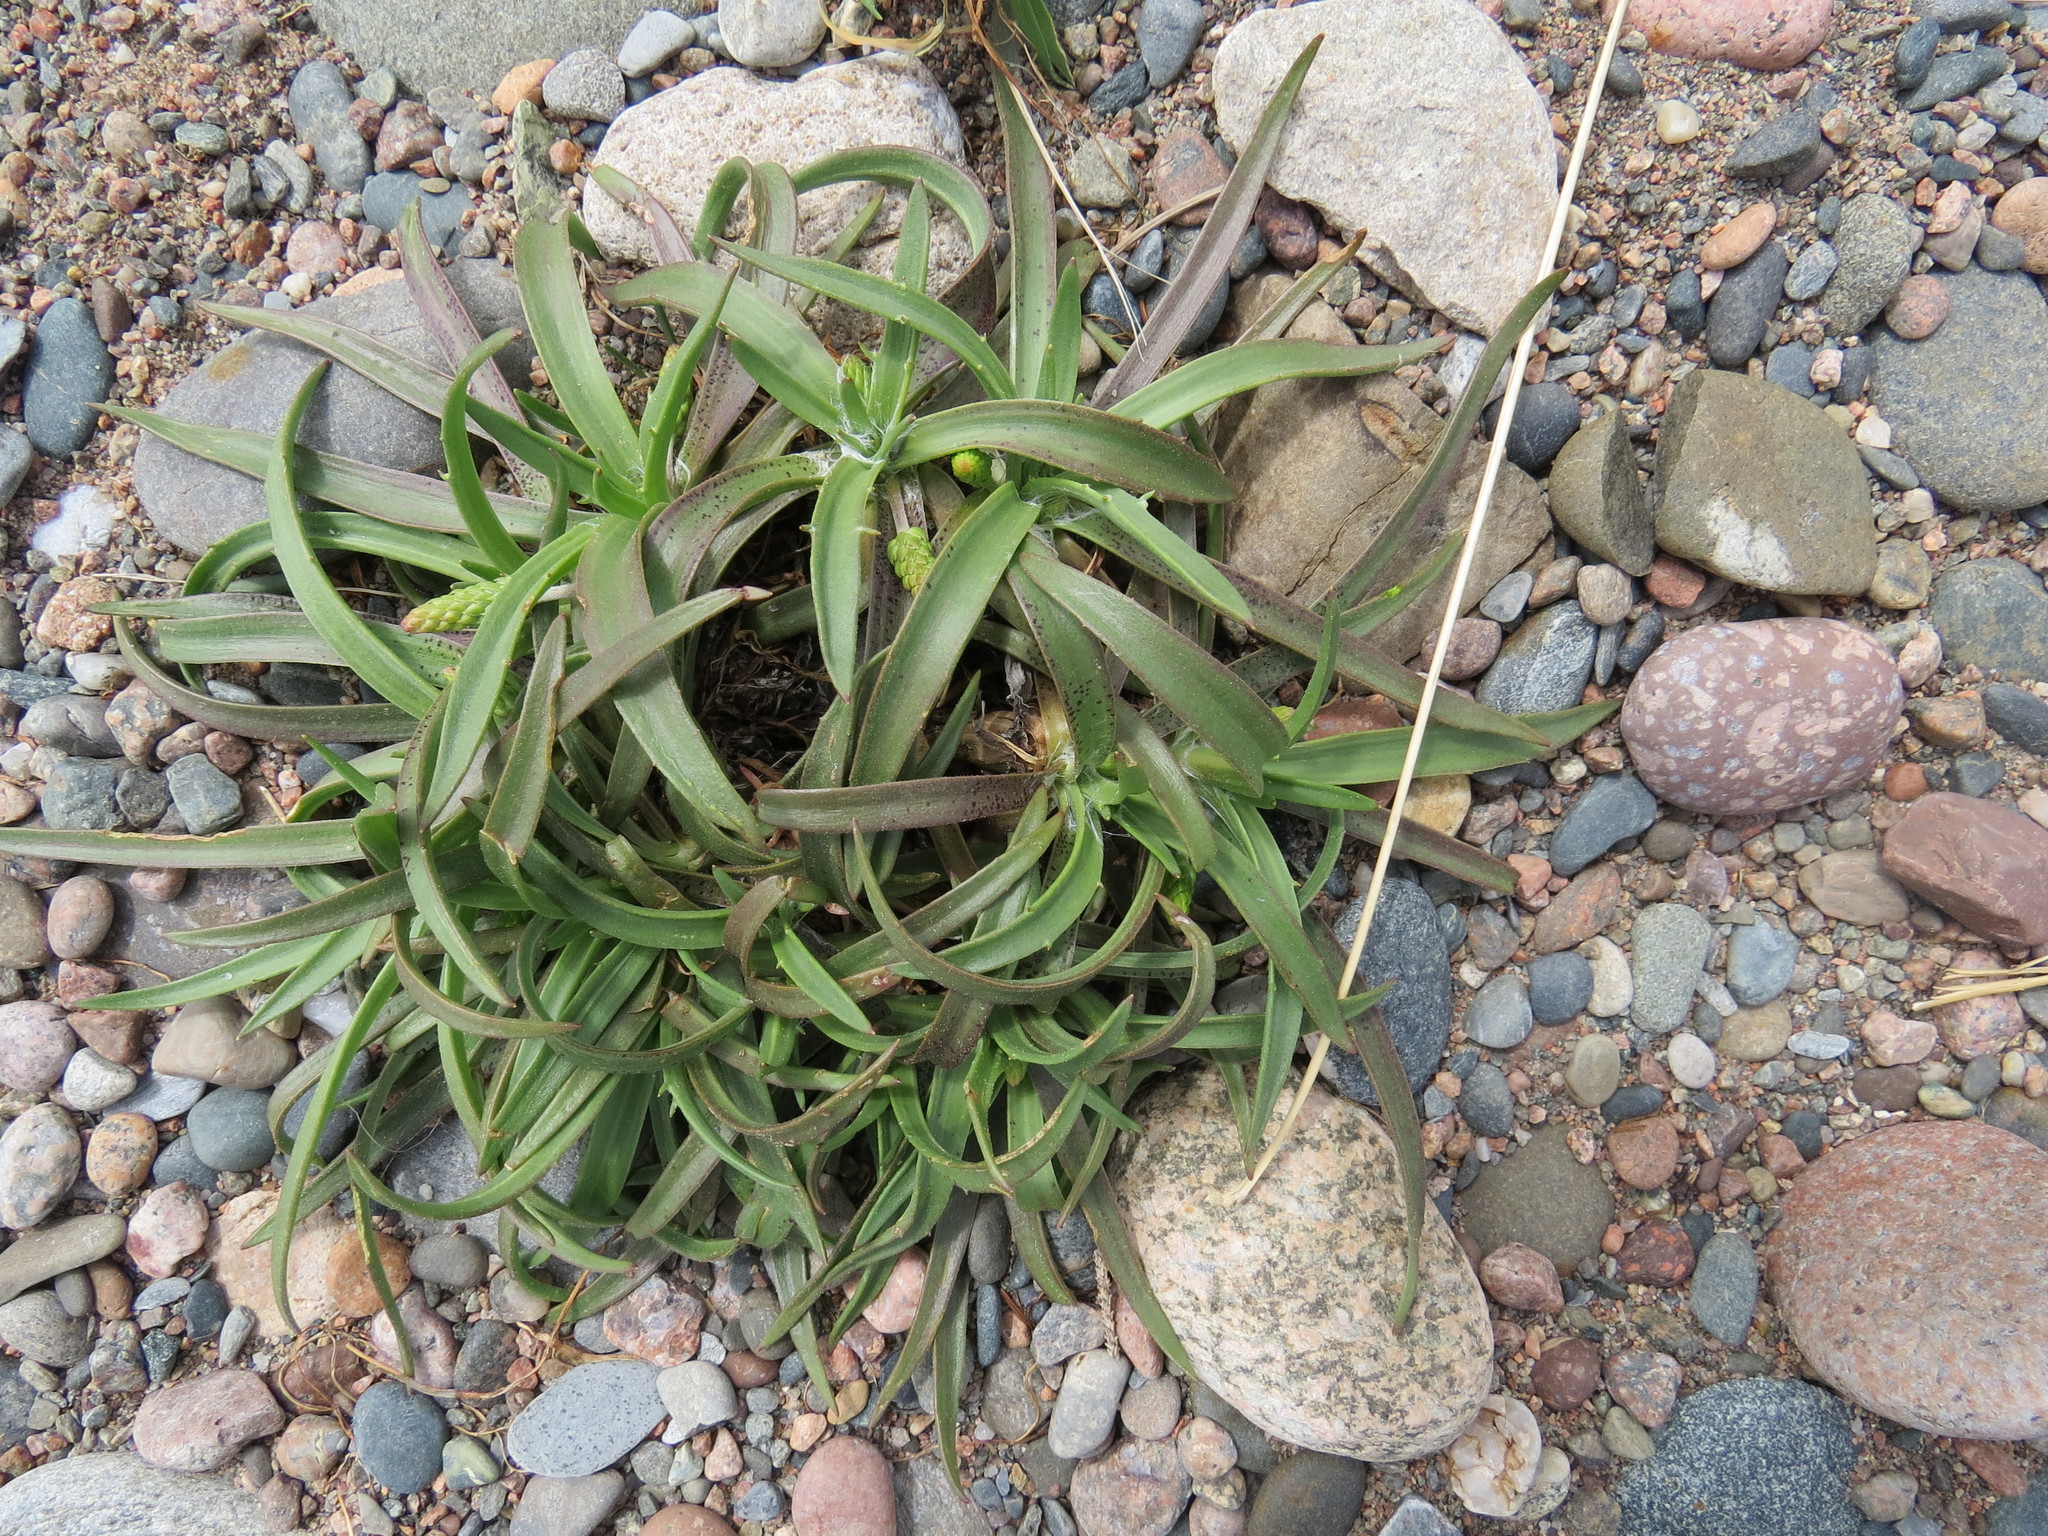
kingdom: Plantae
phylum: Tracheophyta
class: Magnoliopsida
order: Lamiales
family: Plantaginaceae
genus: Plantago
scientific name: Plantago maritima
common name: Sea plantain
